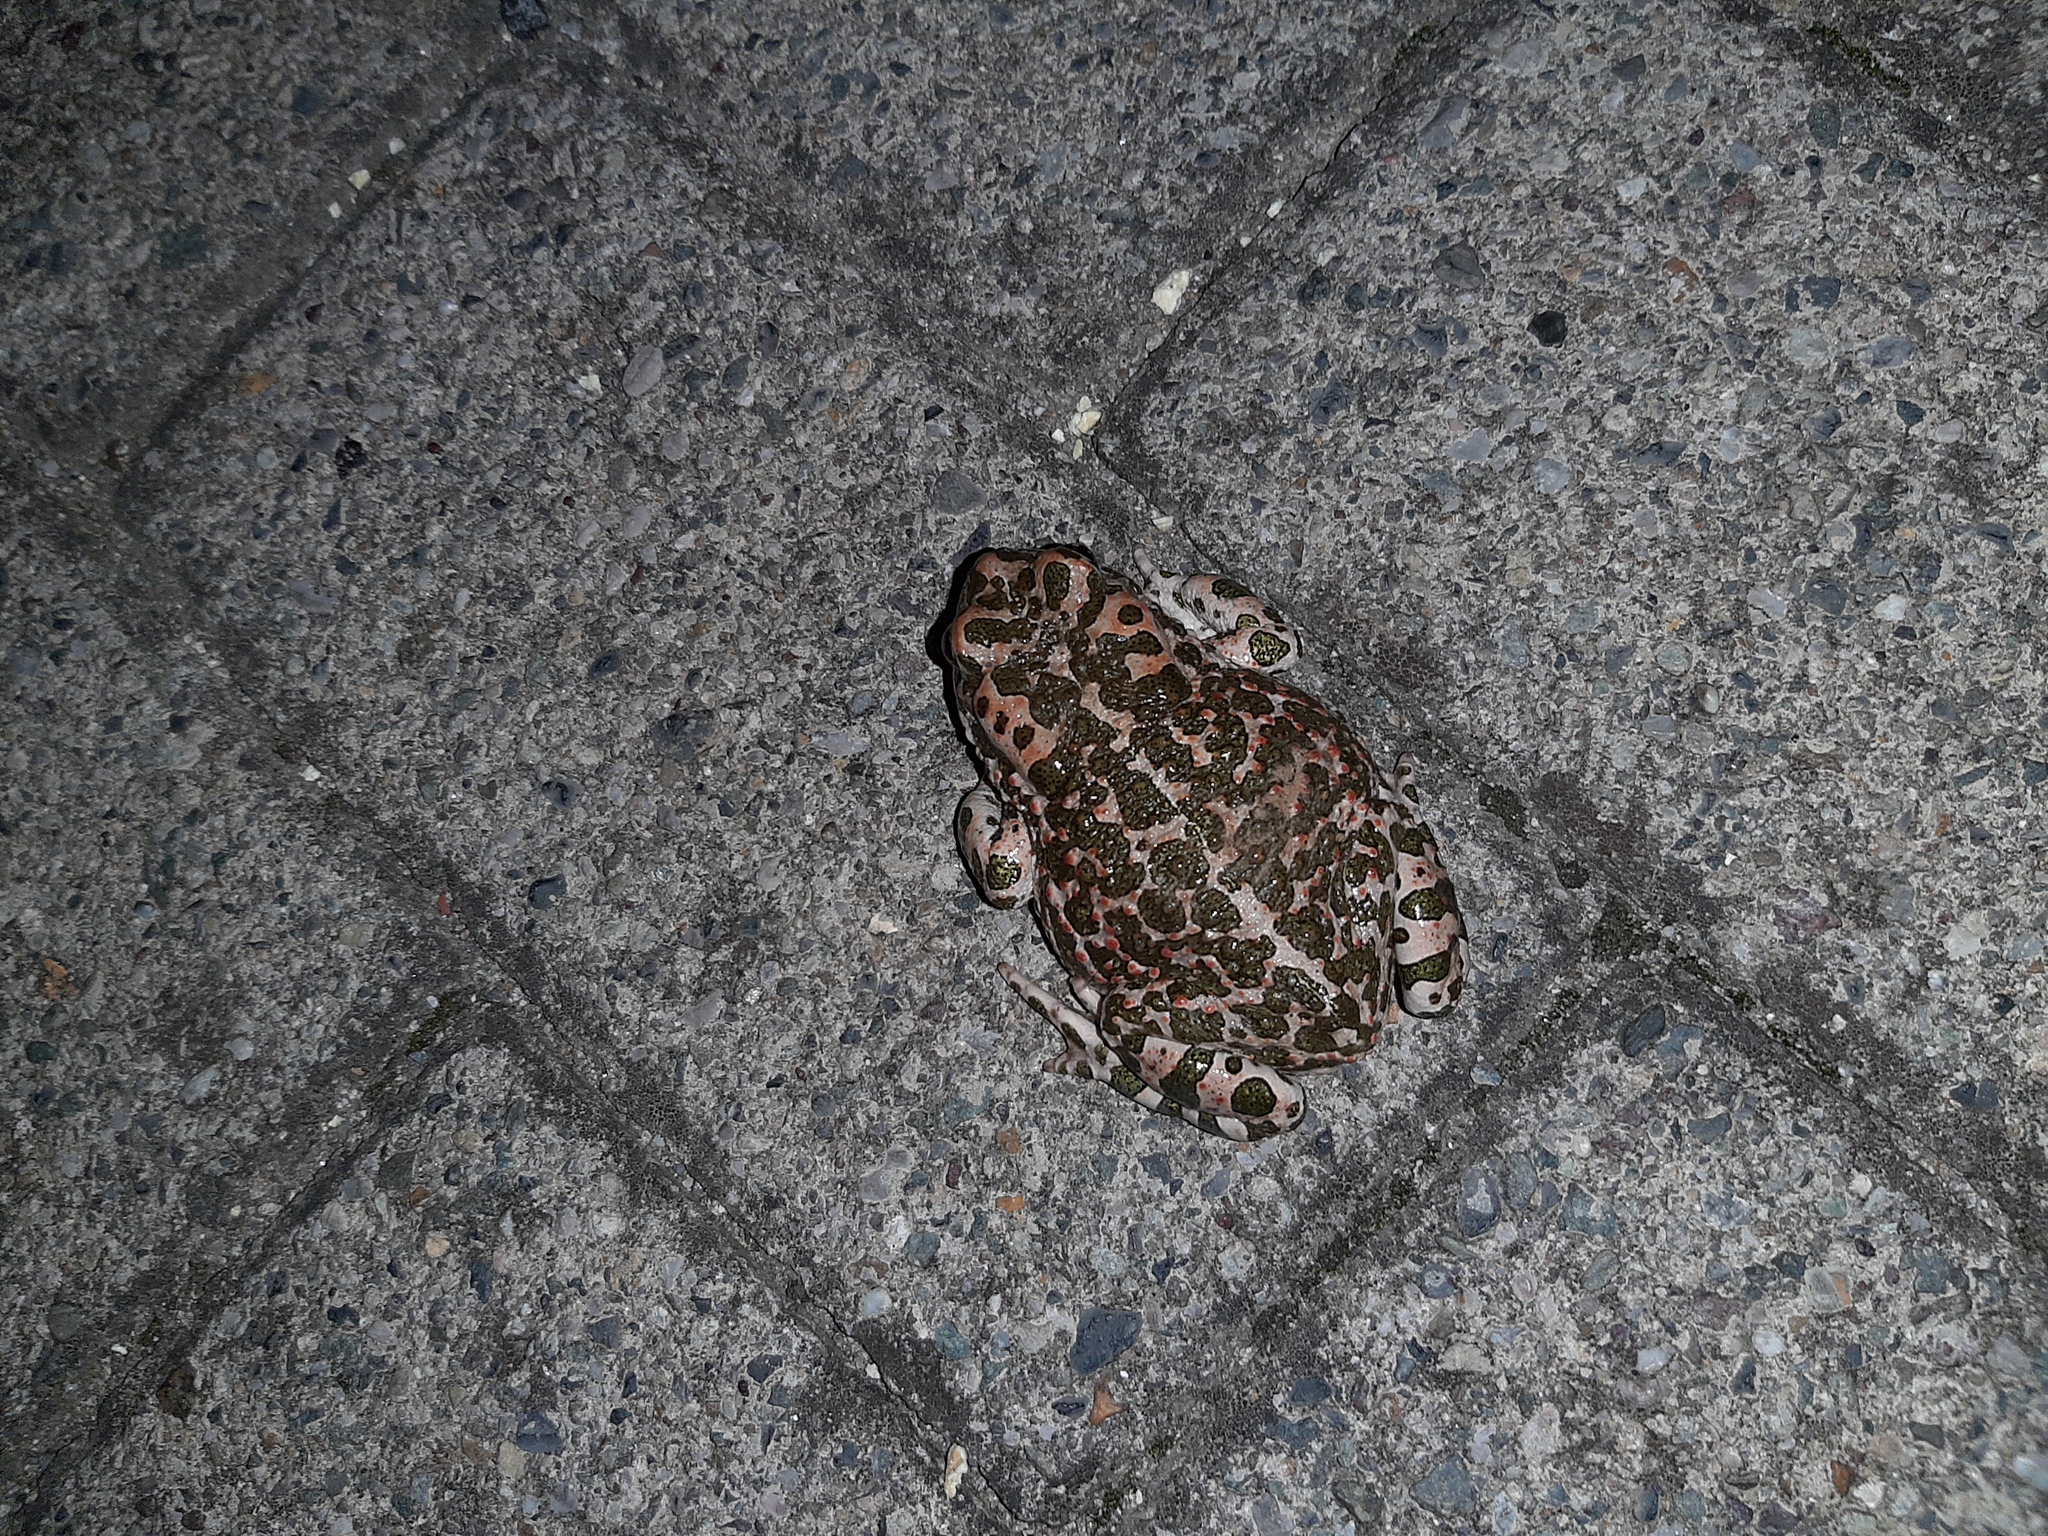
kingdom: Animalia
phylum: Chordata
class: Amphibia
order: Anura
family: Bufonidae
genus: Bufotes
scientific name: Bufotes viridis
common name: European green toad
